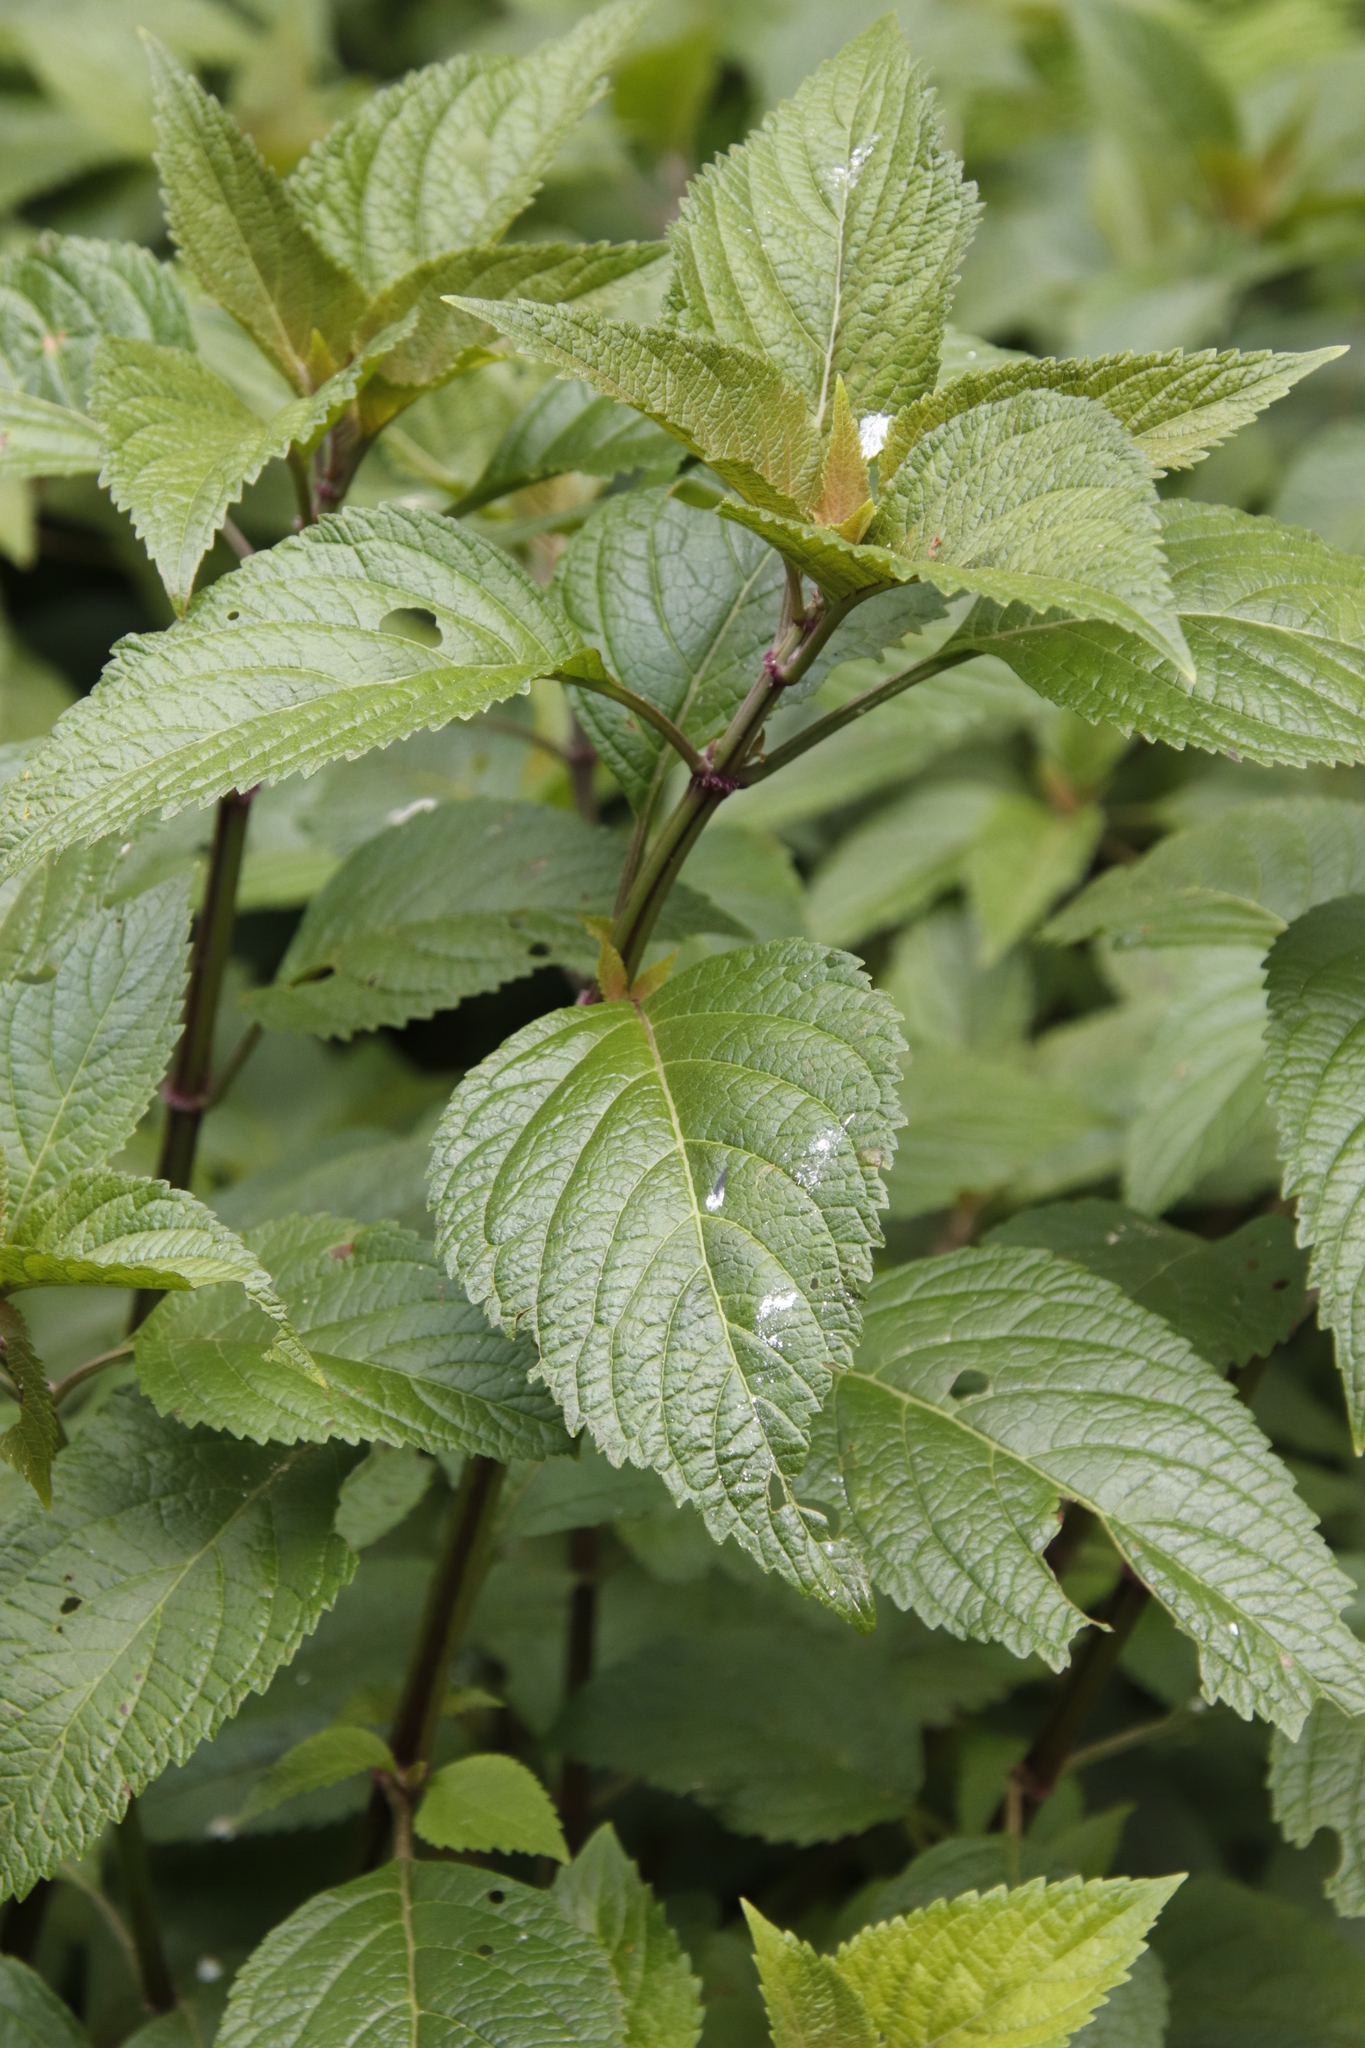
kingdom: Plantae
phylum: Tracheophyta
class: Magnoliopsida
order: Lamiales
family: Lamiaceae
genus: Plectranthus
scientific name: Plectranthus ecklonii
